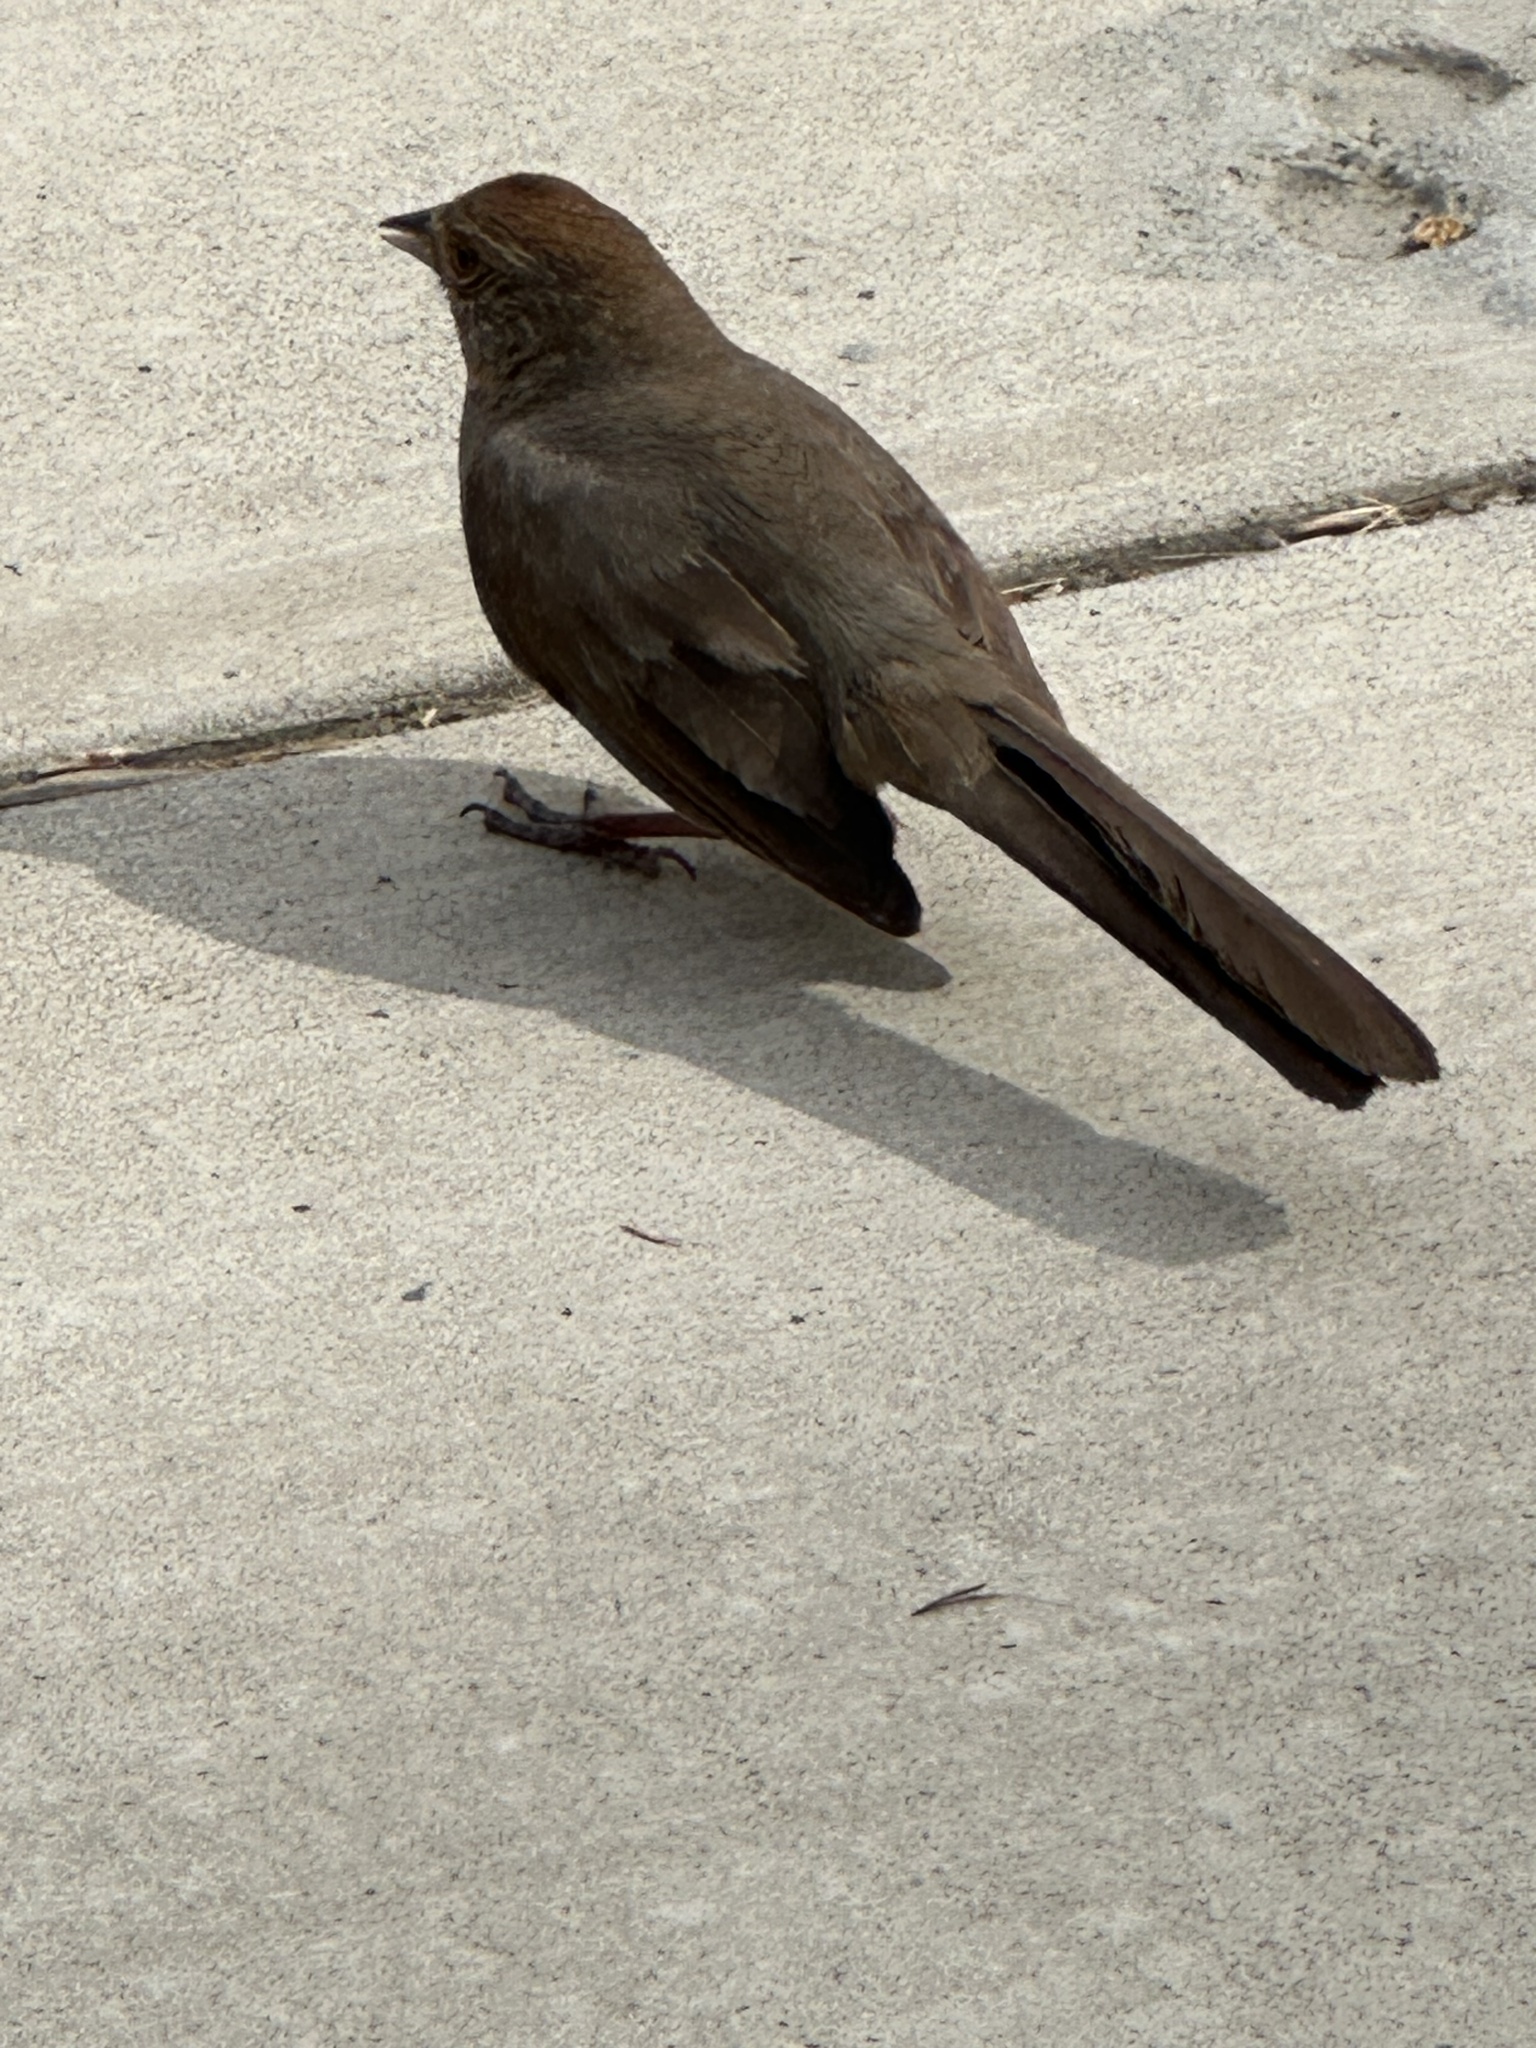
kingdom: Animalia
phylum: Chordata
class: Aves
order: Passeriformes
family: Passerellidae
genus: Melozone
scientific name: Melozone crissalis
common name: California towhee
